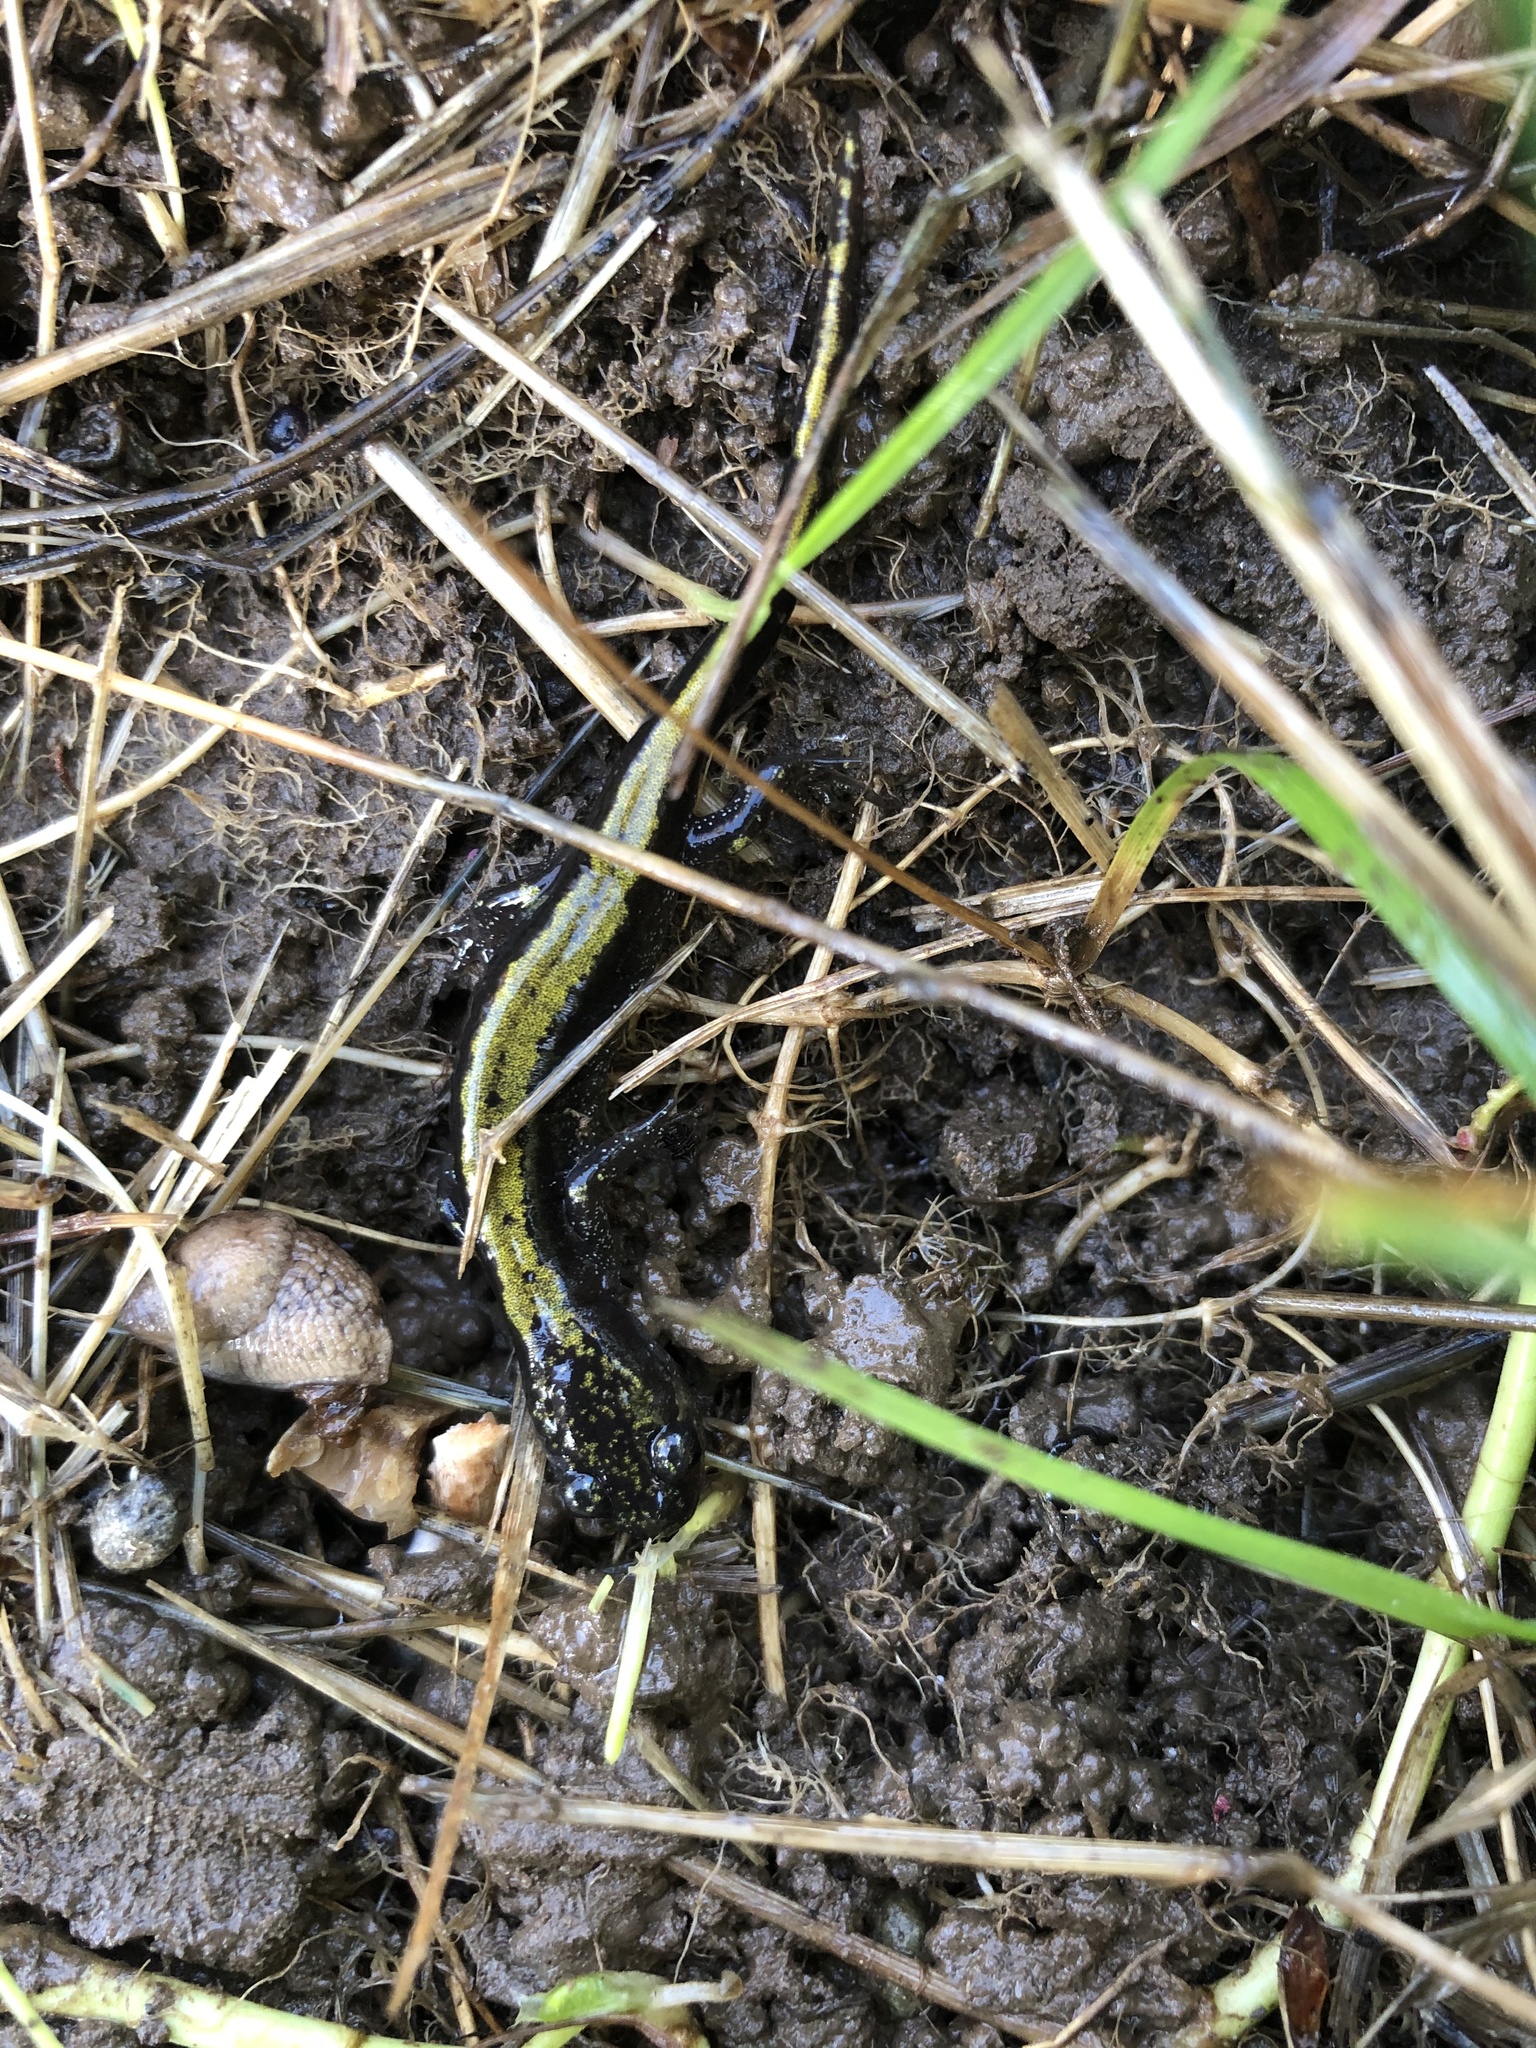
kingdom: Animalia
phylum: Chordata
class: Amphibia
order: Caudata
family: Ambystomatidae
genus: Ambystoma
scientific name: Ambystoma macrodactylum
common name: Long-toed salamander
